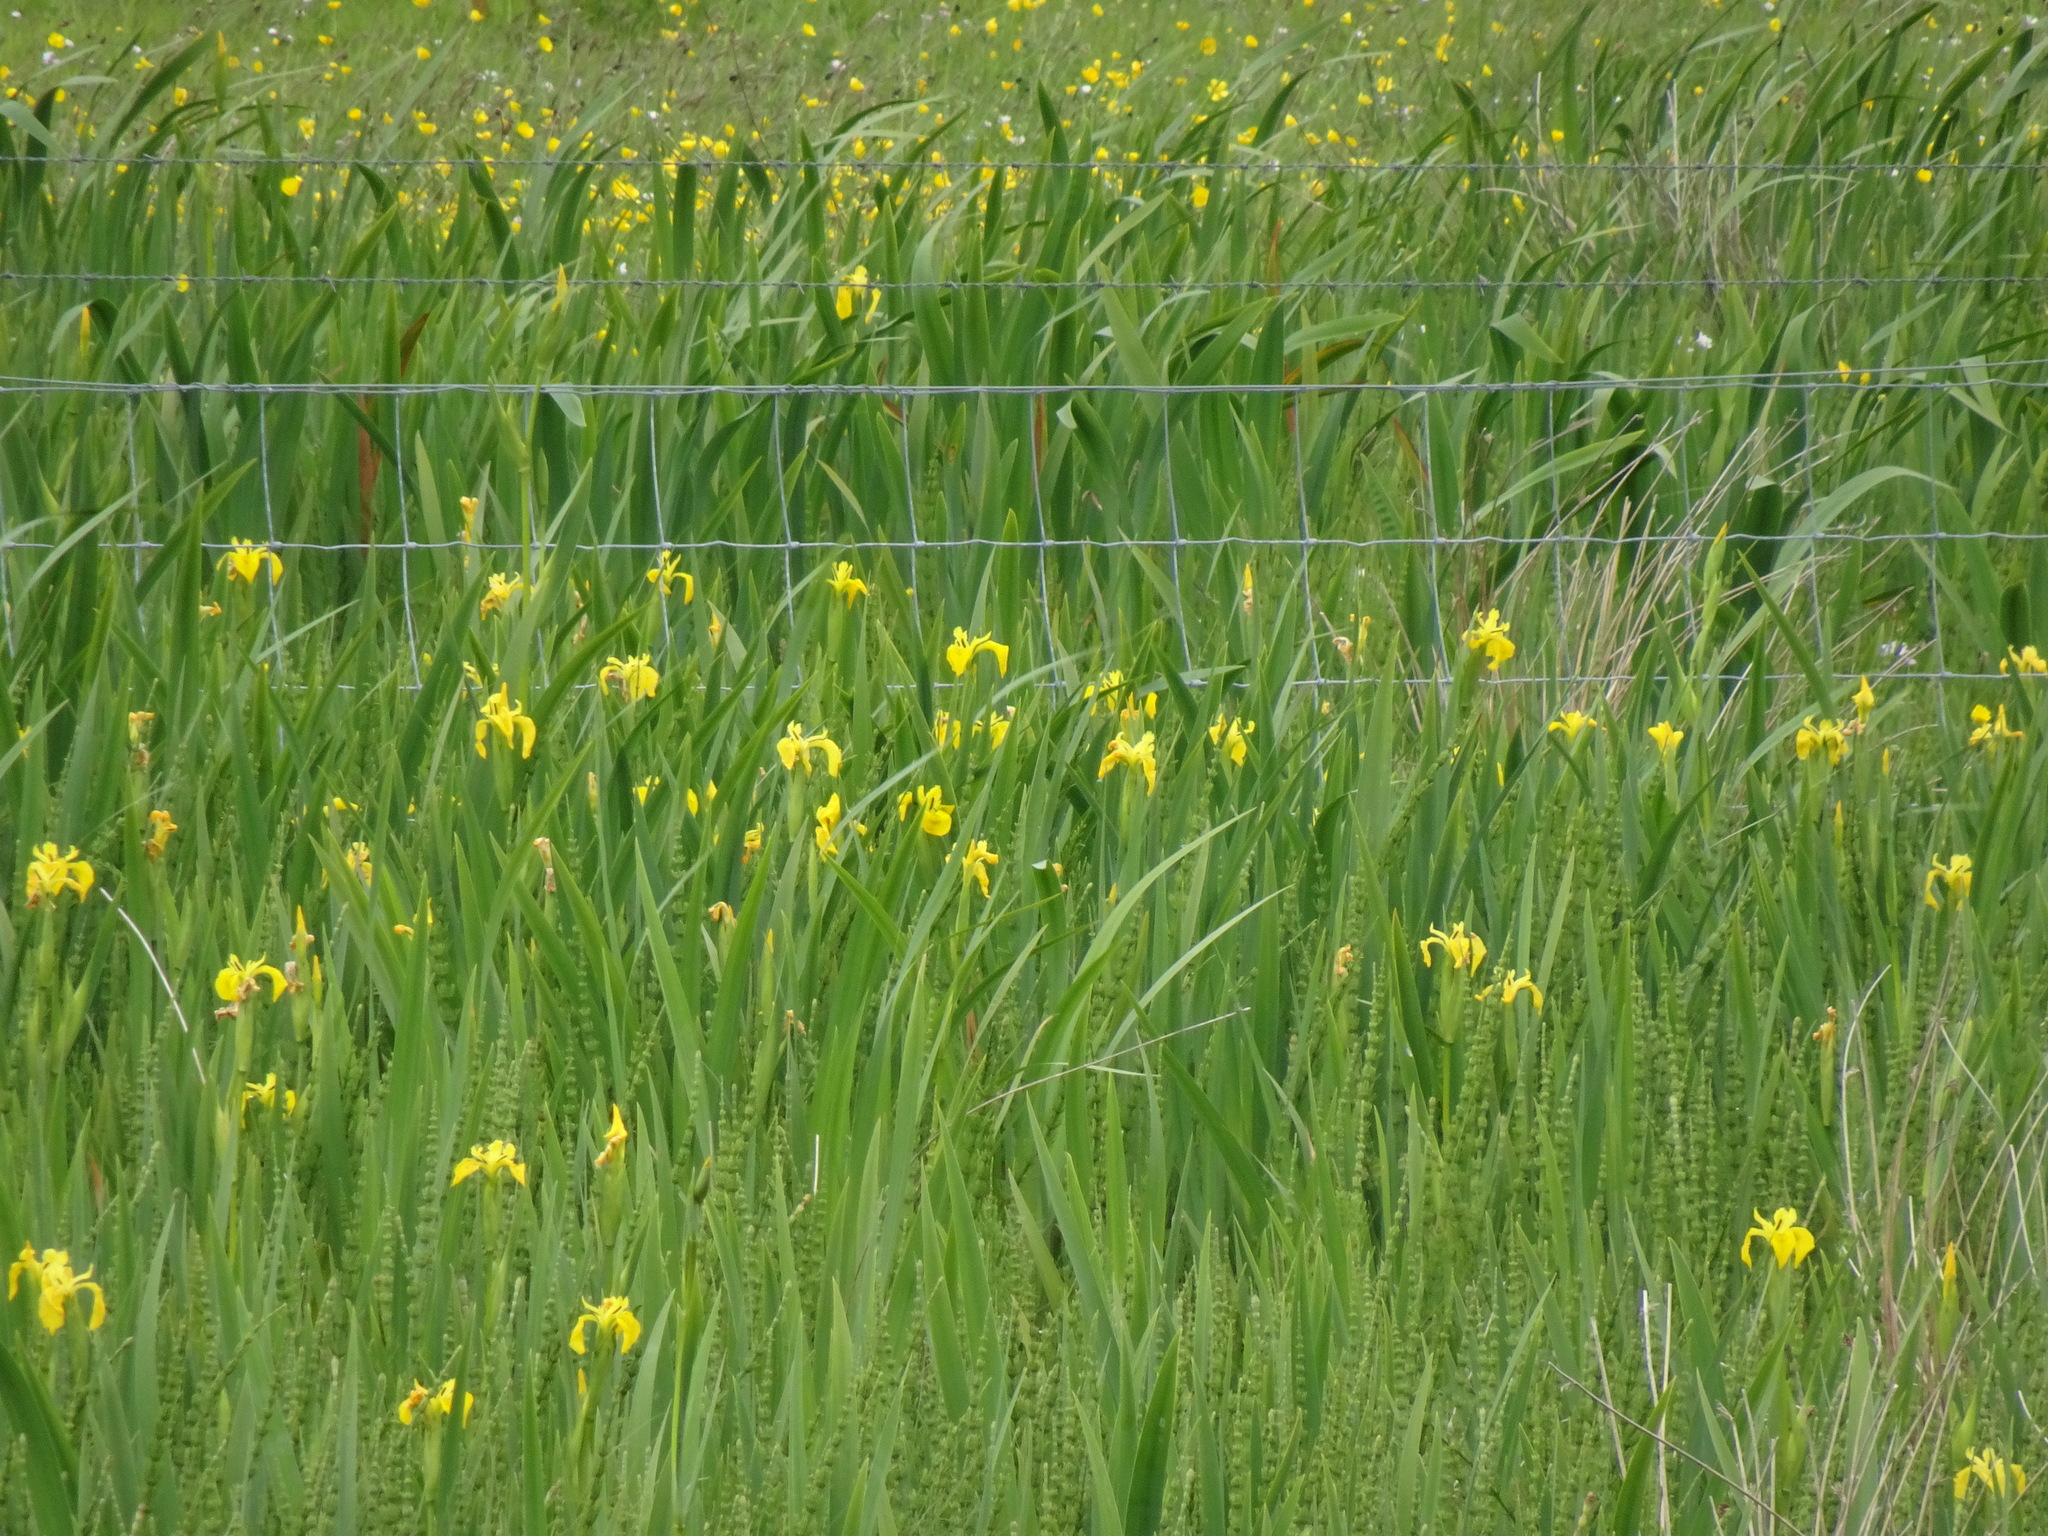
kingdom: Plantae
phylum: Tracheophyta
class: Liliopsida
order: Asparagales
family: Iridaceae
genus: Iris
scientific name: Iris pseudacorus
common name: Yellow flag
